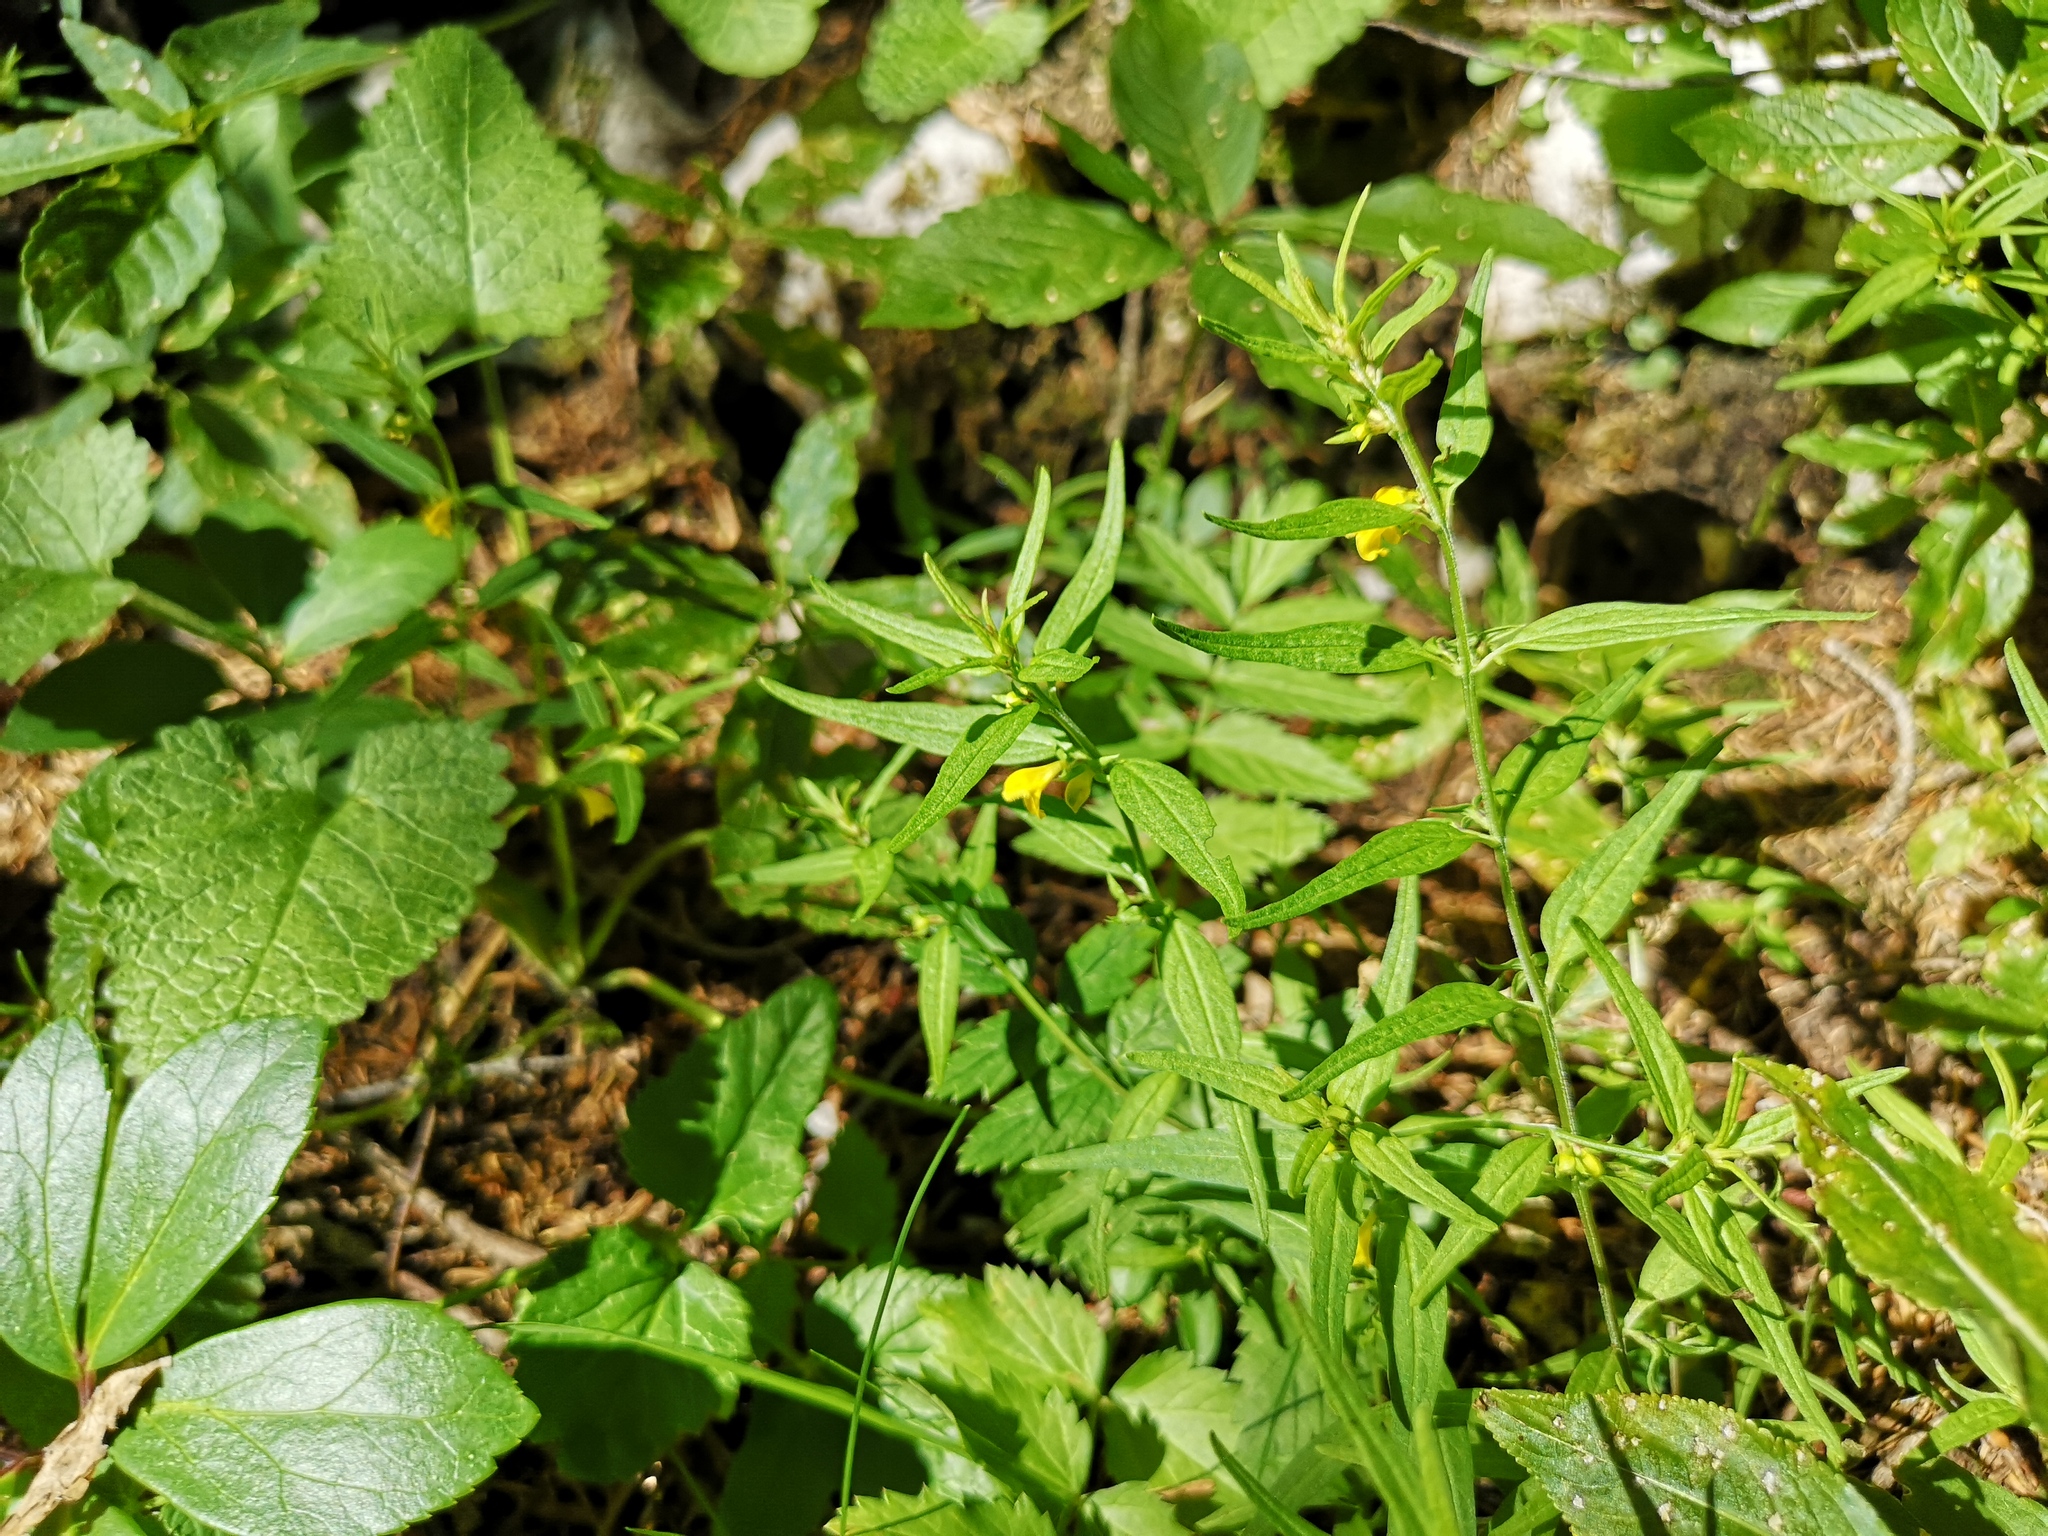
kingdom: Plantae
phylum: Tracheophyta
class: Magnoliopsida
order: Lamiales
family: Orobanchaceae
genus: Melampyrum
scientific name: Melampyrum sylvaticum
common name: Small cow-wheat
